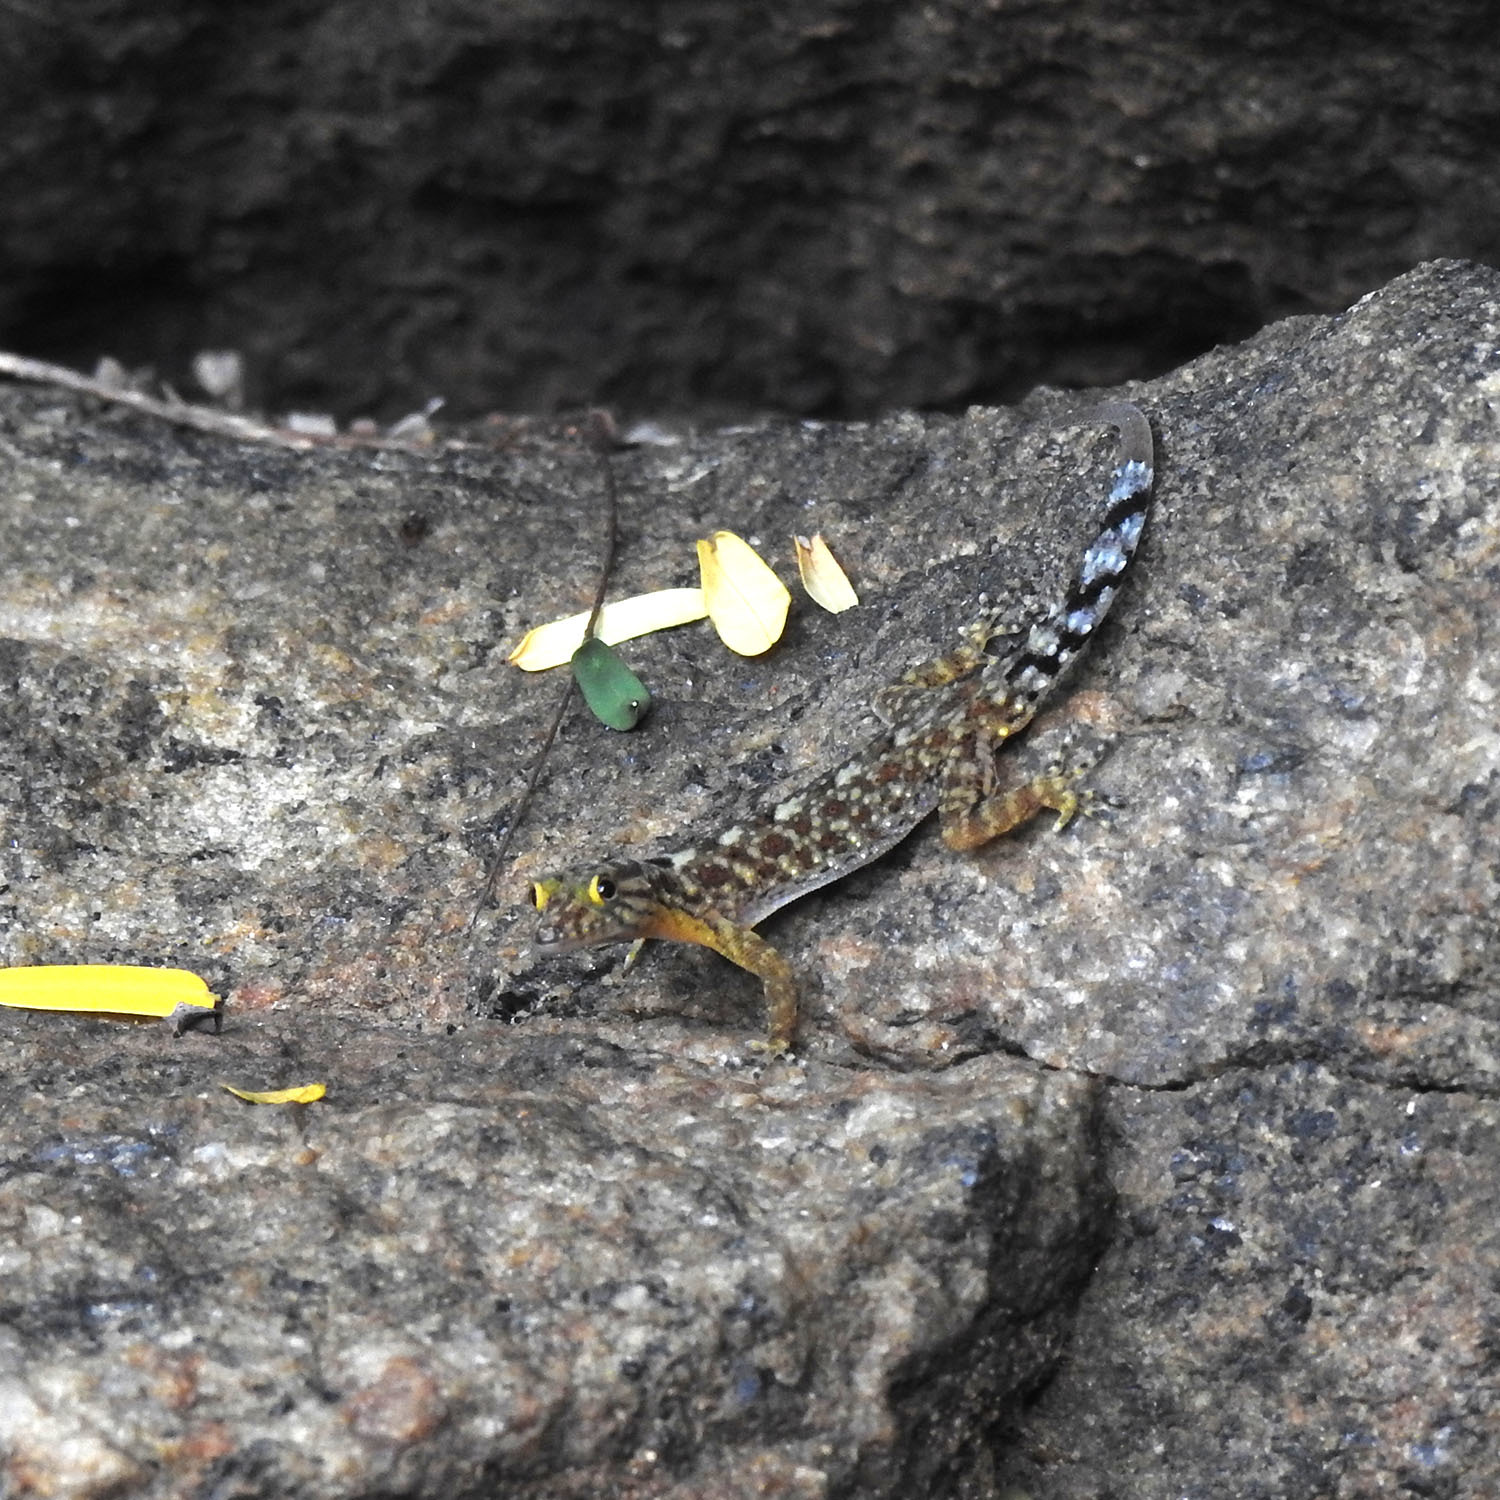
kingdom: Animalia
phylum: Chordata
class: Squamata
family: Gekkonidae
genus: Cnemaspis
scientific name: Cnemaspis gracilis
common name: Graceful day gecko
